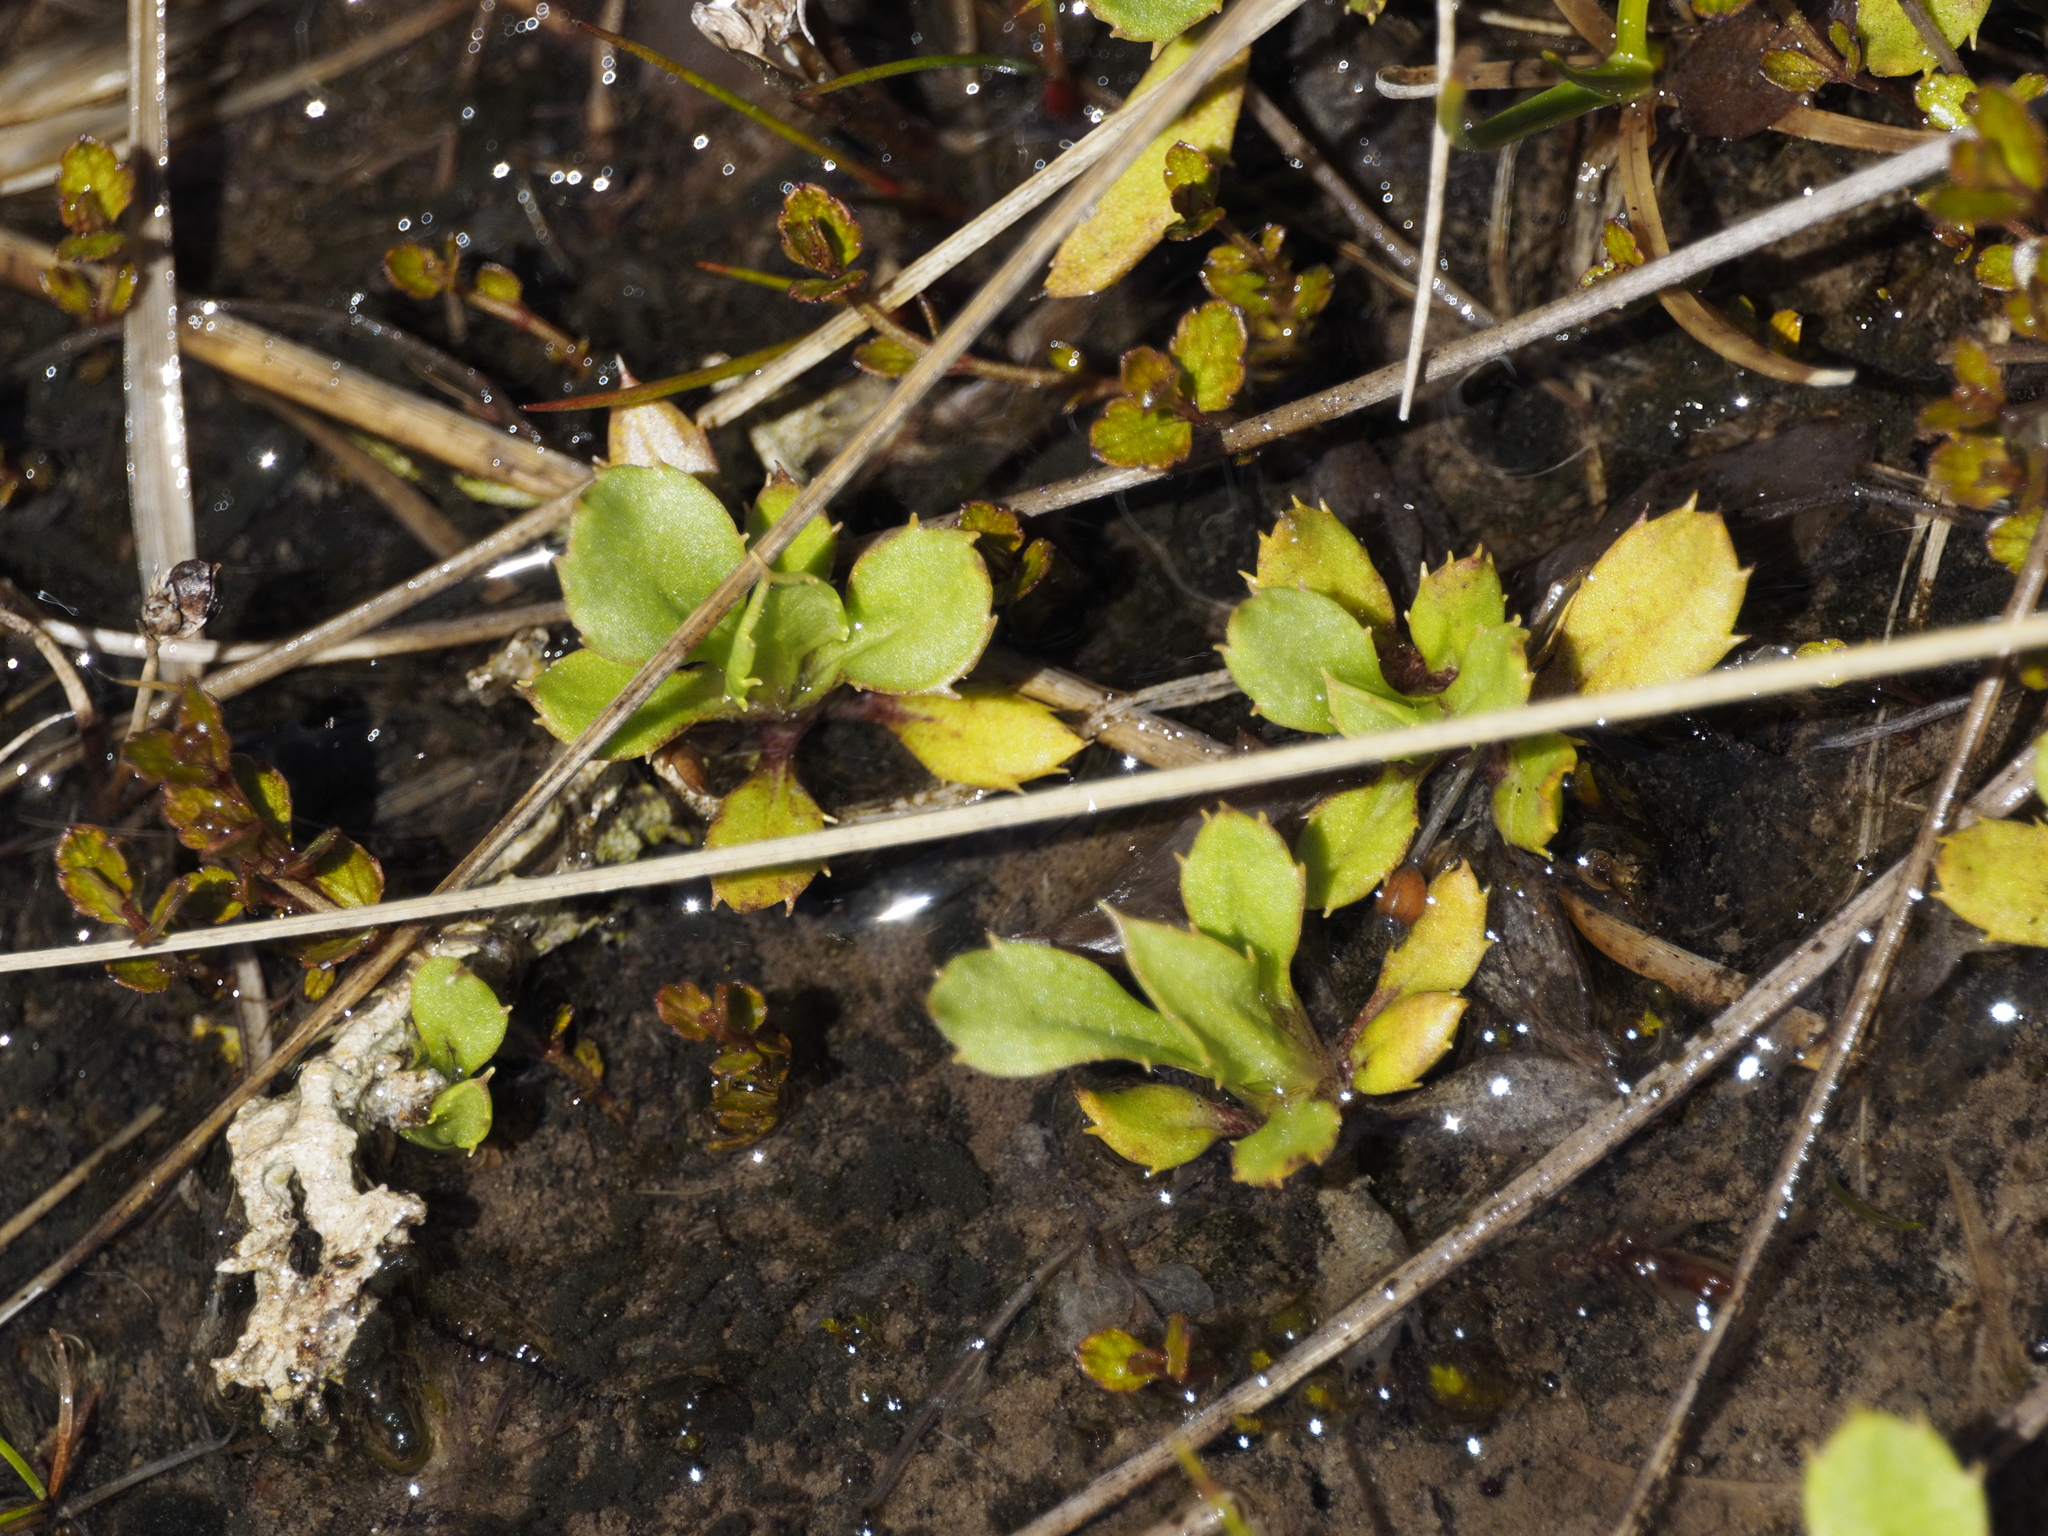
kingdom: Plantae
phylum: Tracheophyta
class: Magnoliopsida
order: Asterales
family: Asteraceae
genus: Celmisia
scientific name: Celmisia glandulosa
